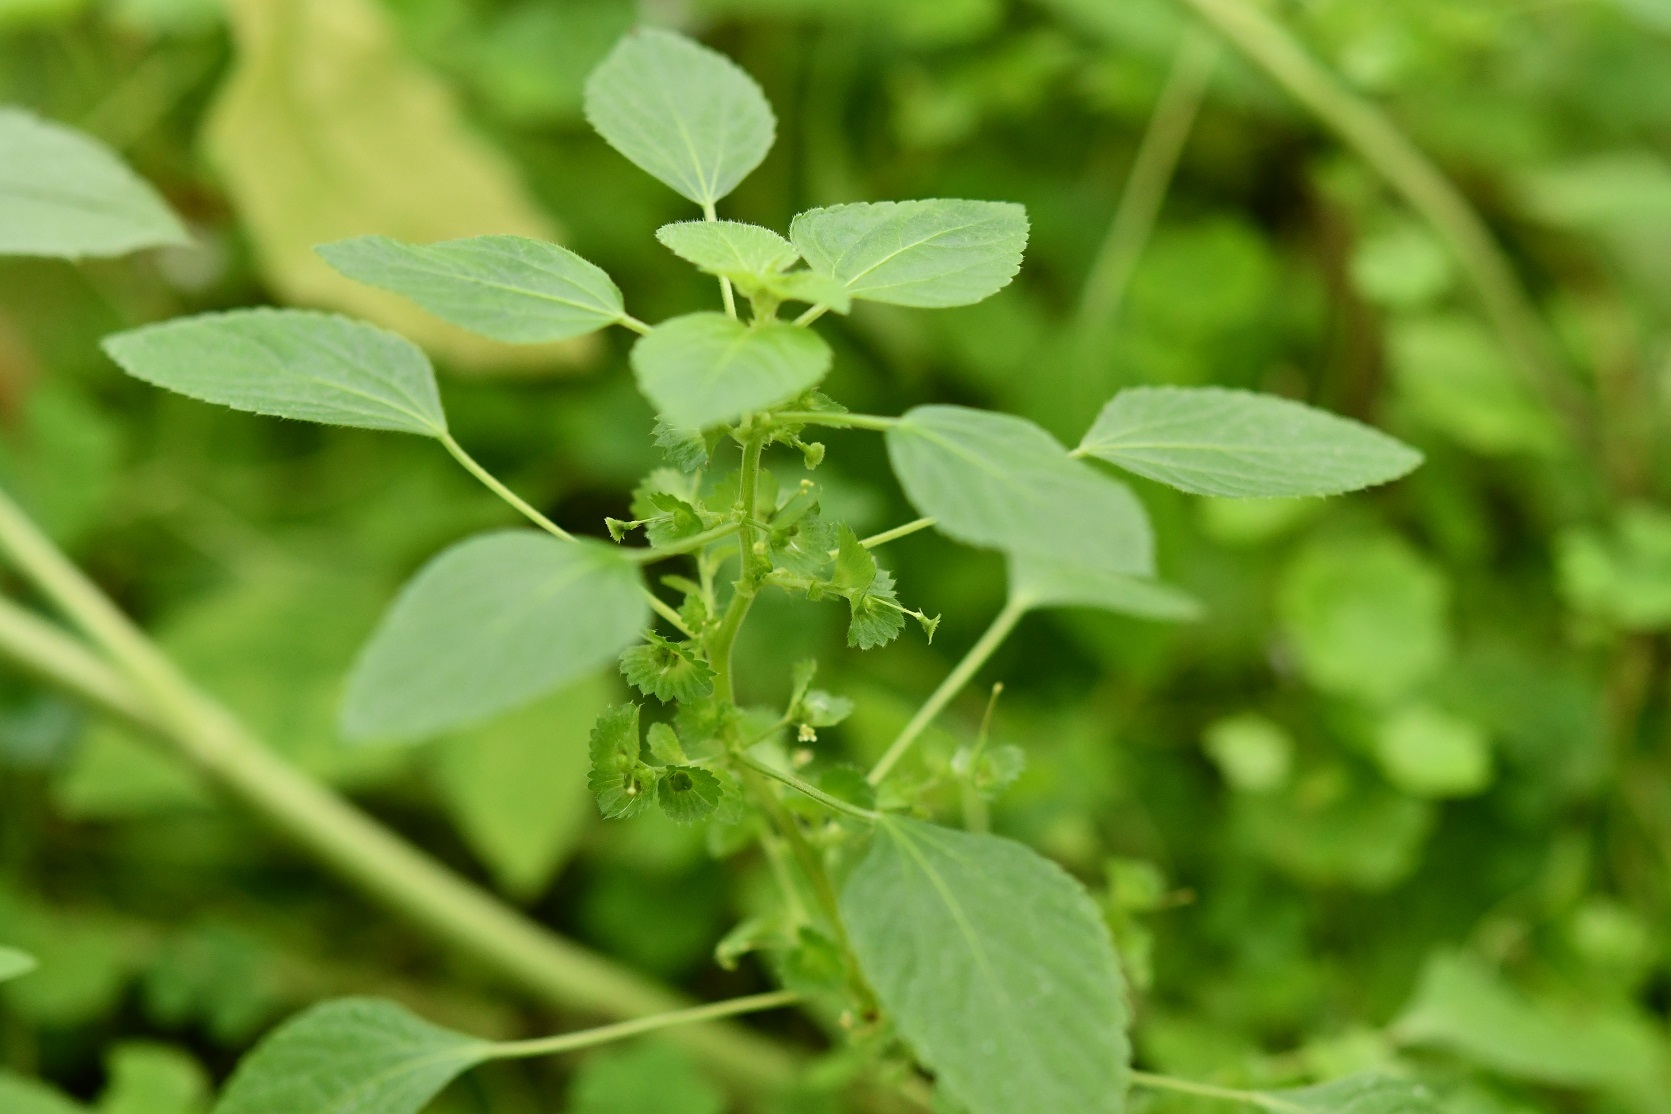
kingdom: Plantae
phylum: Tracheophyta
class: Magnoliopsida
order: Malpighiales
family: Euphorbiaceae
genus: Acalypha
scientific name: Acalypha mexicana
